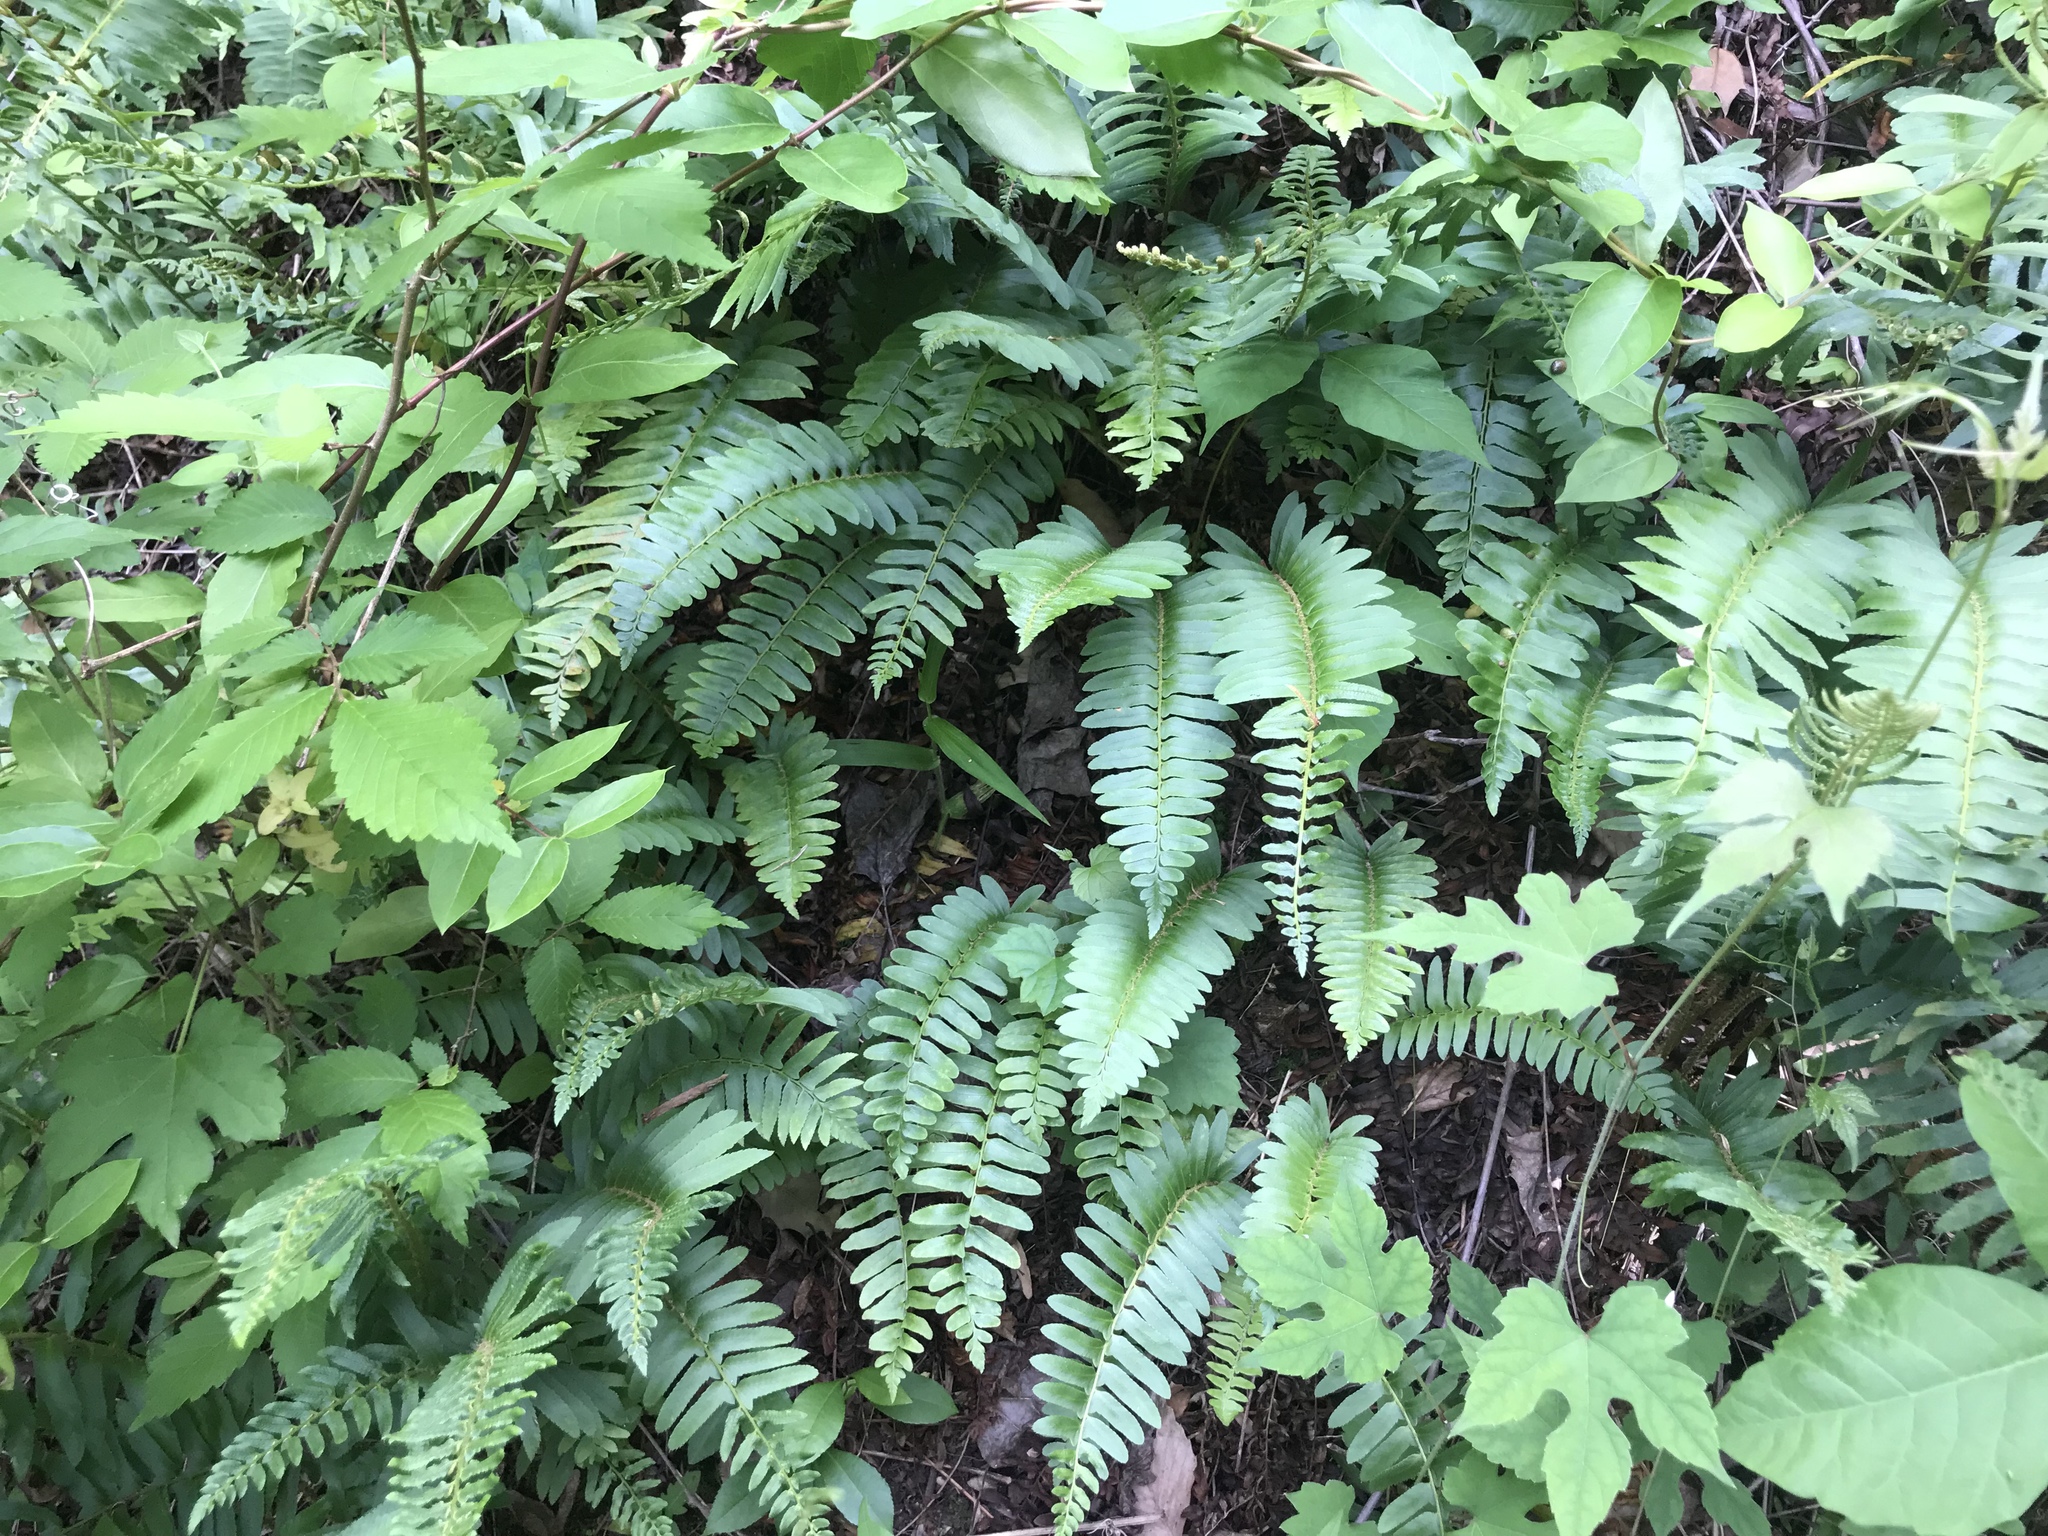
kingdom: Plantae
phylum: Tracheophyta
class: Polypodiopsida
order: Polypodiales
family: Dryopteridaceae
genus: Polystichum
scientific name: Polystichum acrostichoides
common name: Christmas fern
